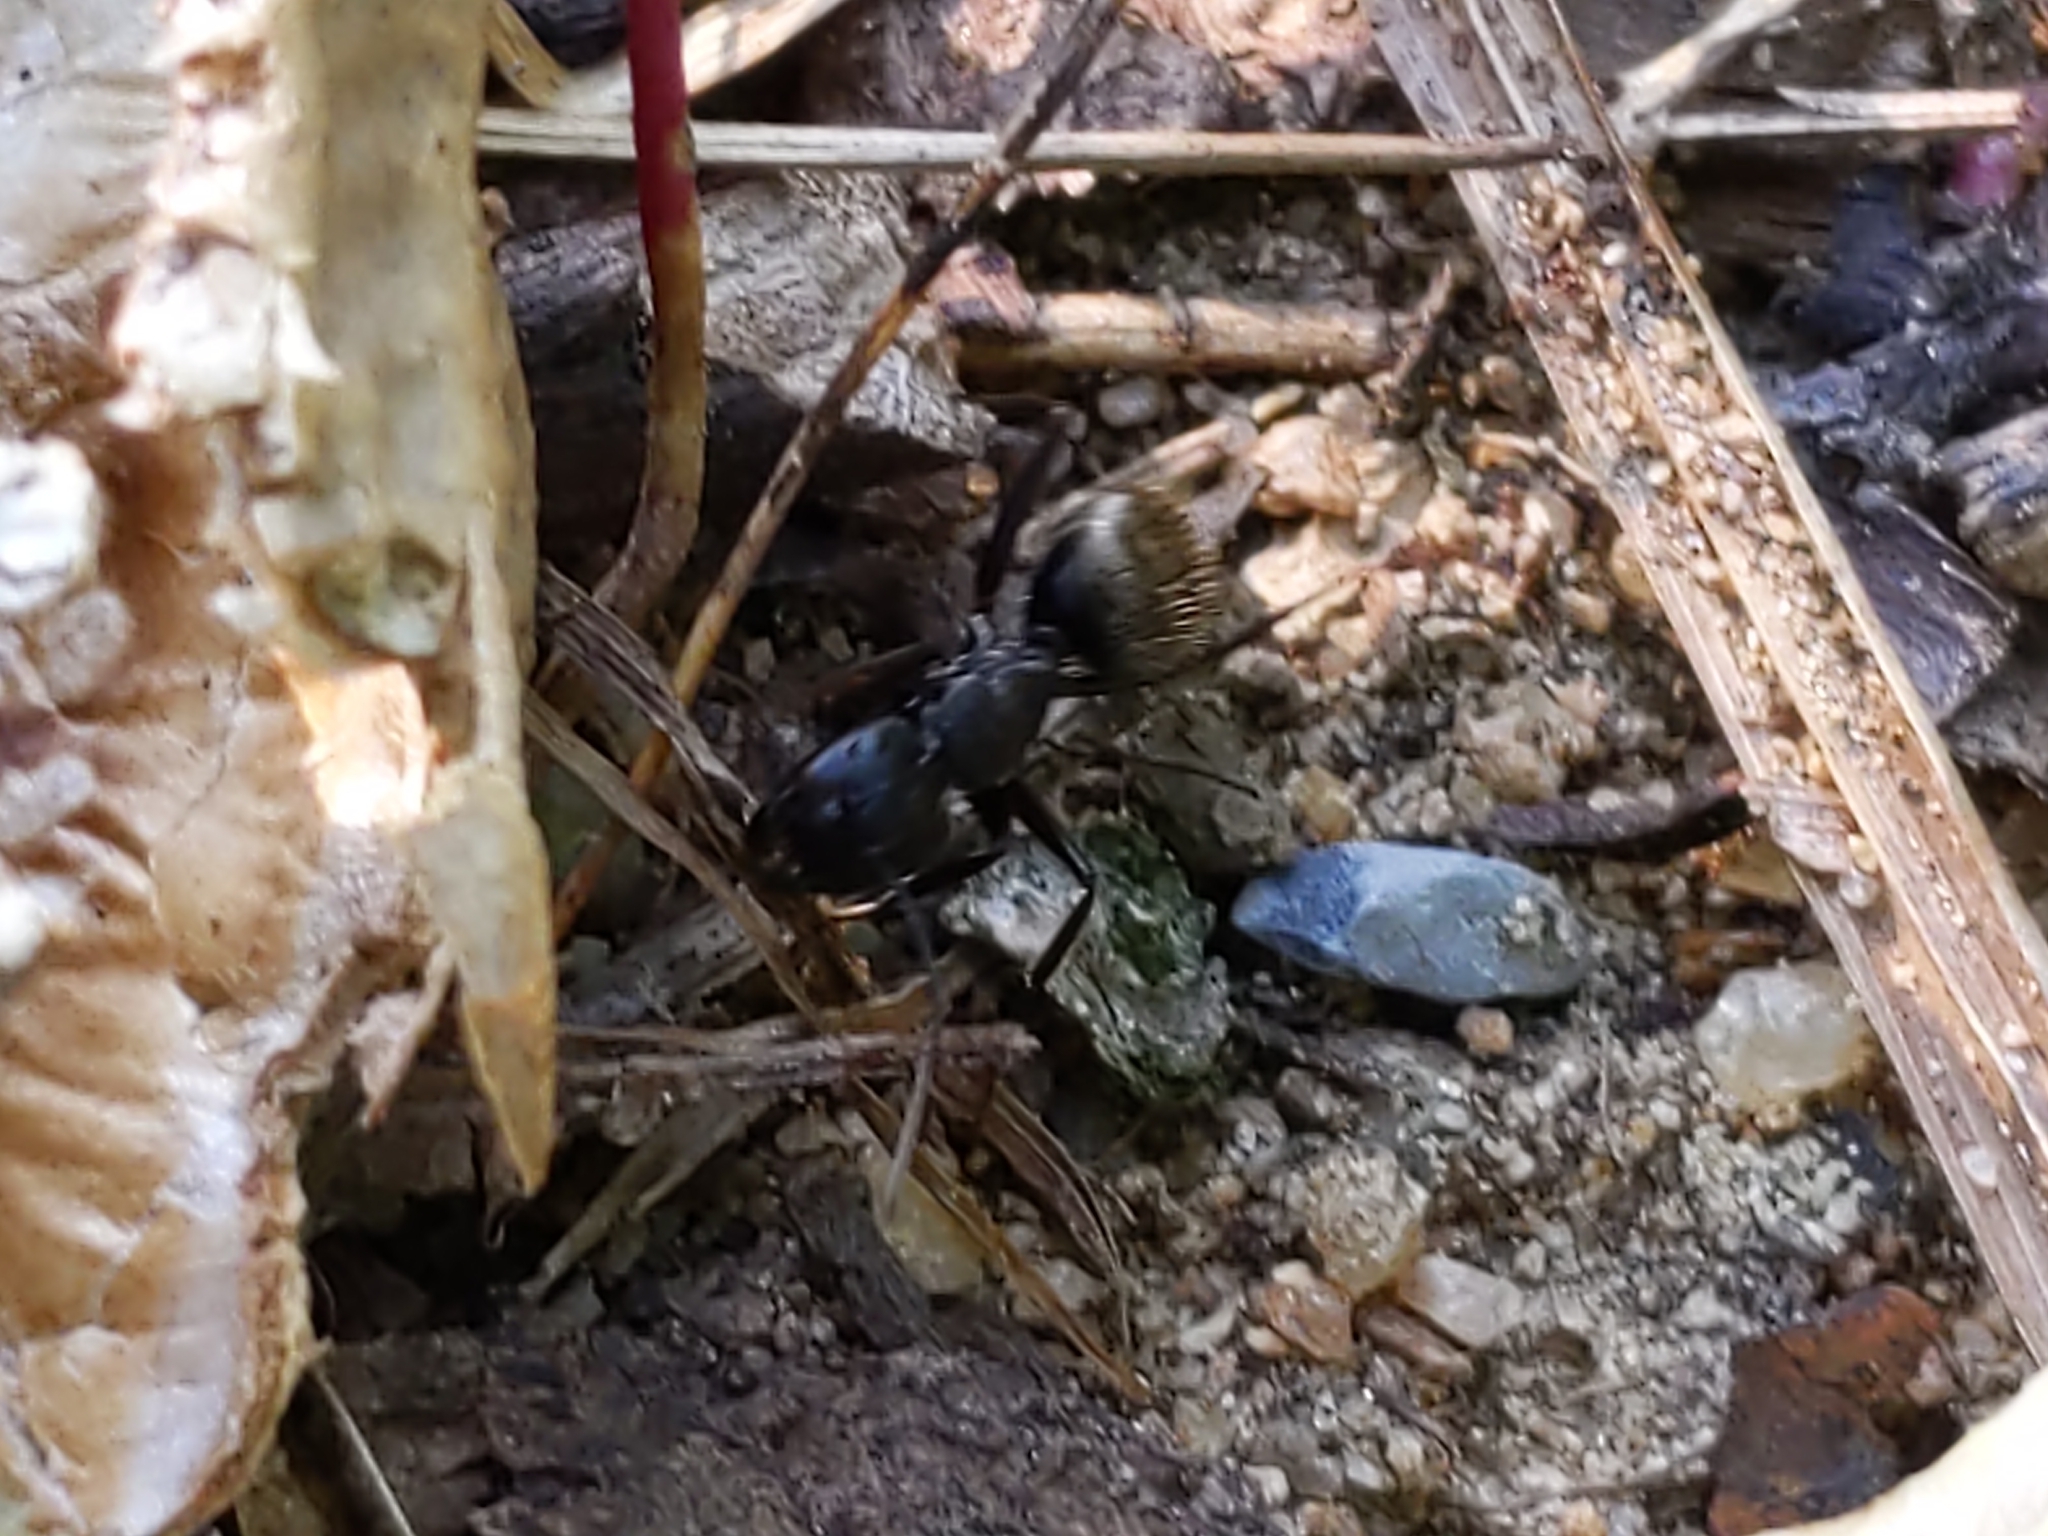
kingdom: Animalia
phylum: Arthropoda
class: Insecta
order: Hymenoptera
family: Formicidae
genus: Camponotus
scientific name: Camponotus pennsylvanicus
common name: Black carpenter ant
